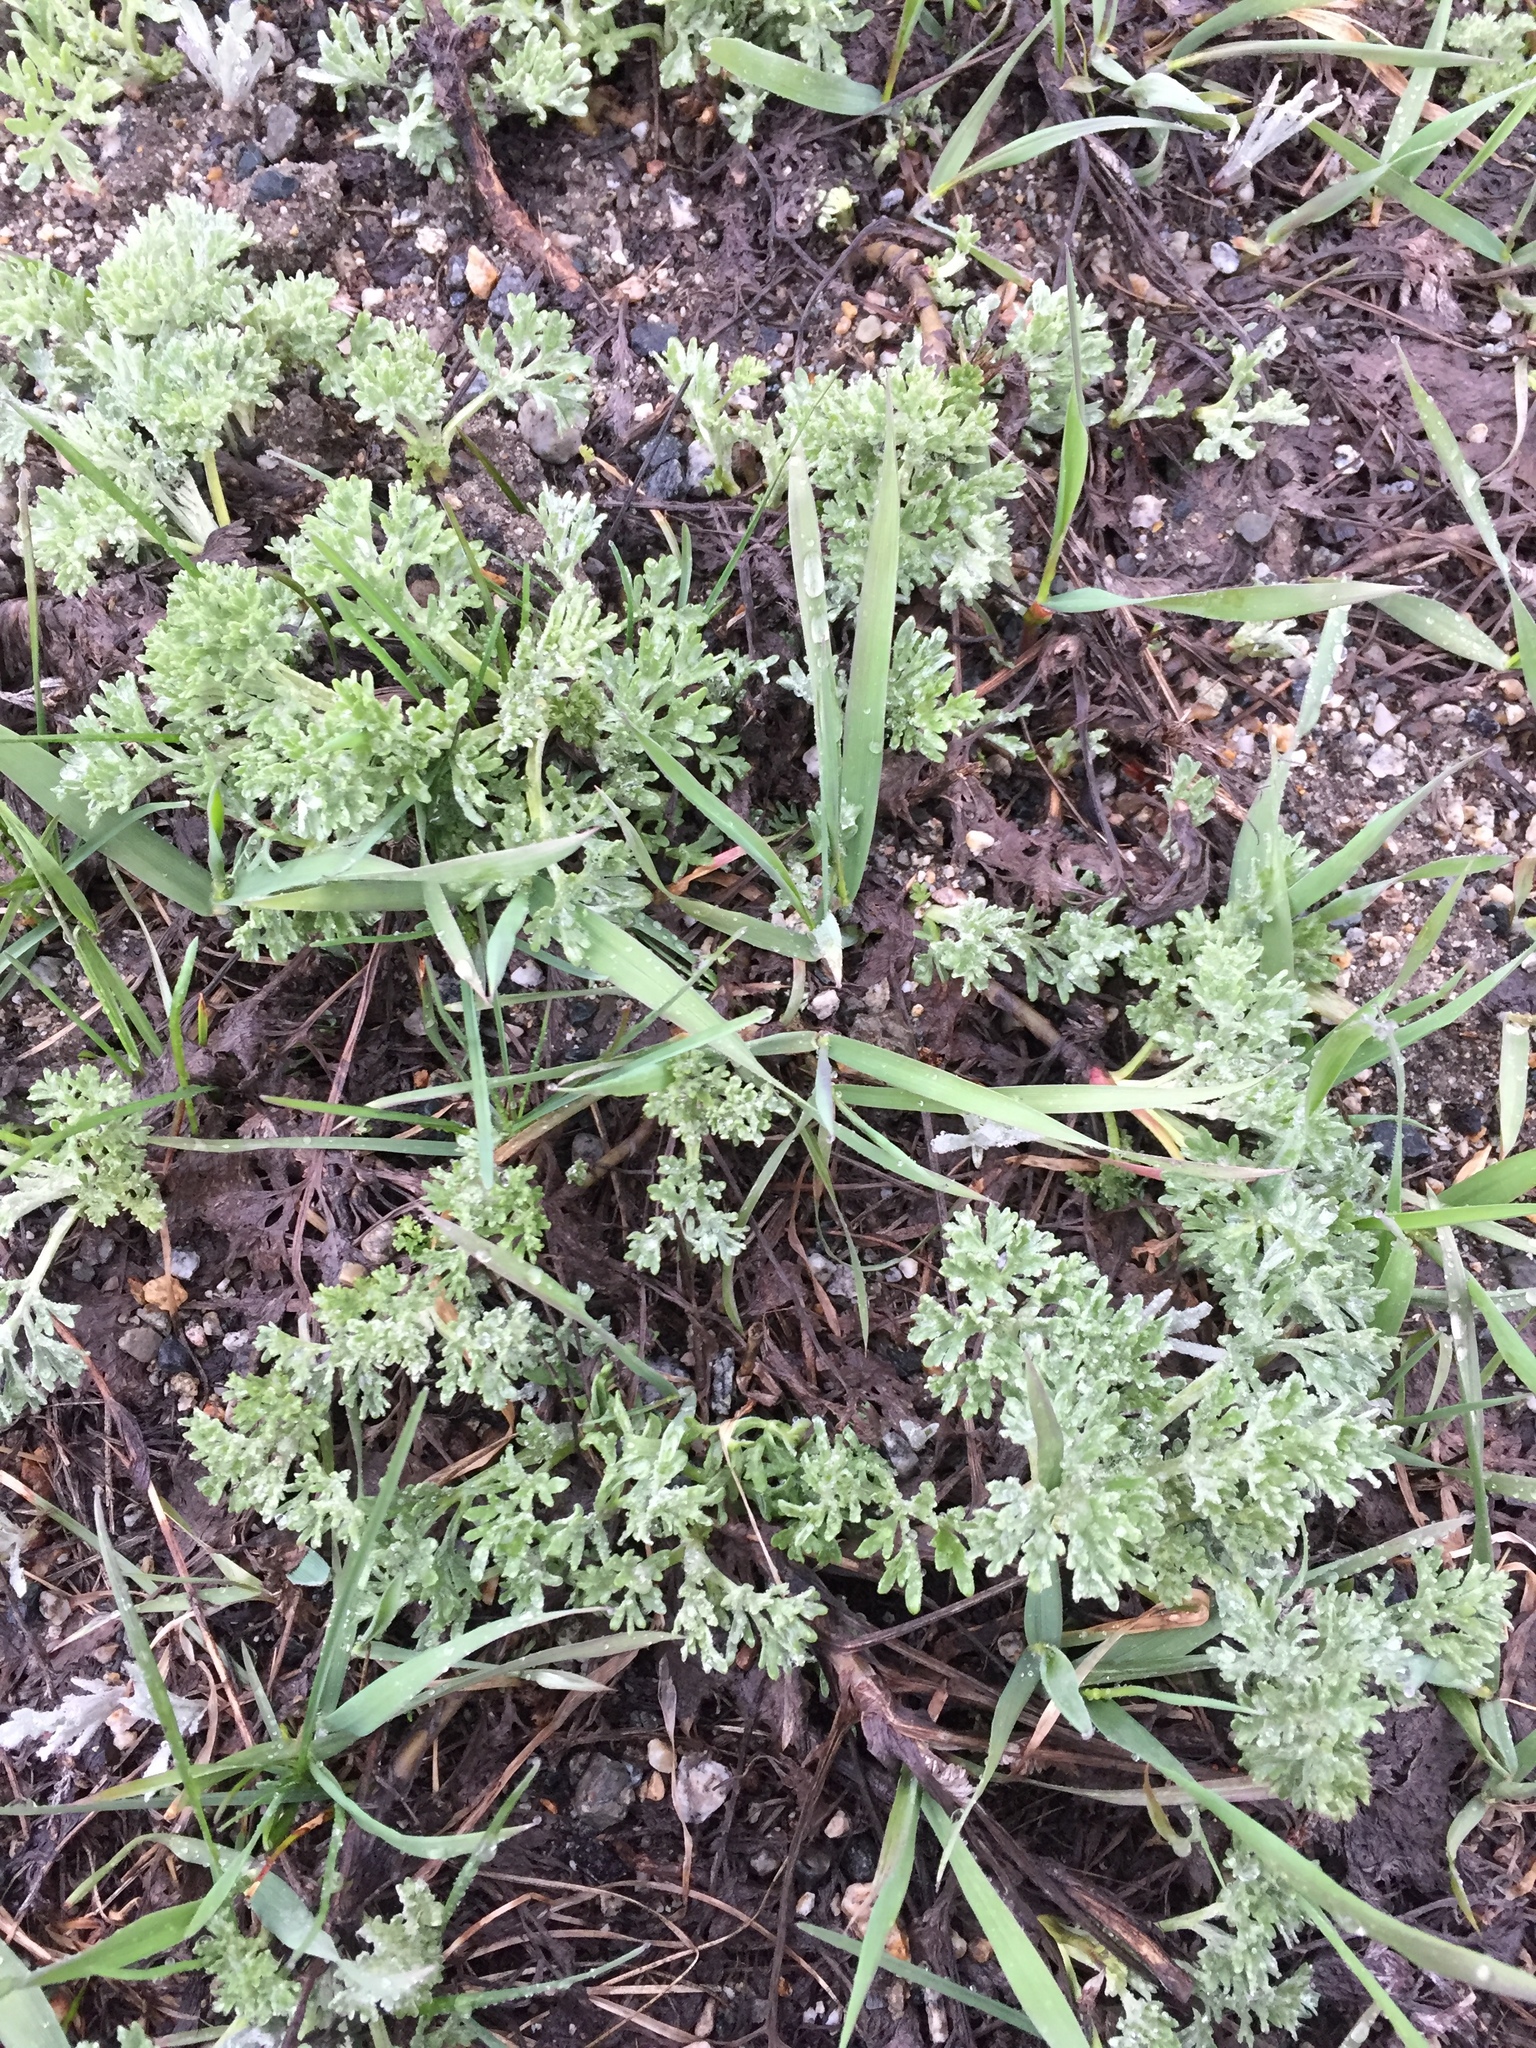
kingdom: Plantae
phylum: Tracheophyta
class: Magnoliopsida
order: Asterales
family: Asteraceae
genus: Artemisia
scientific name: Artemisia absinthium
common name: Wormwood
